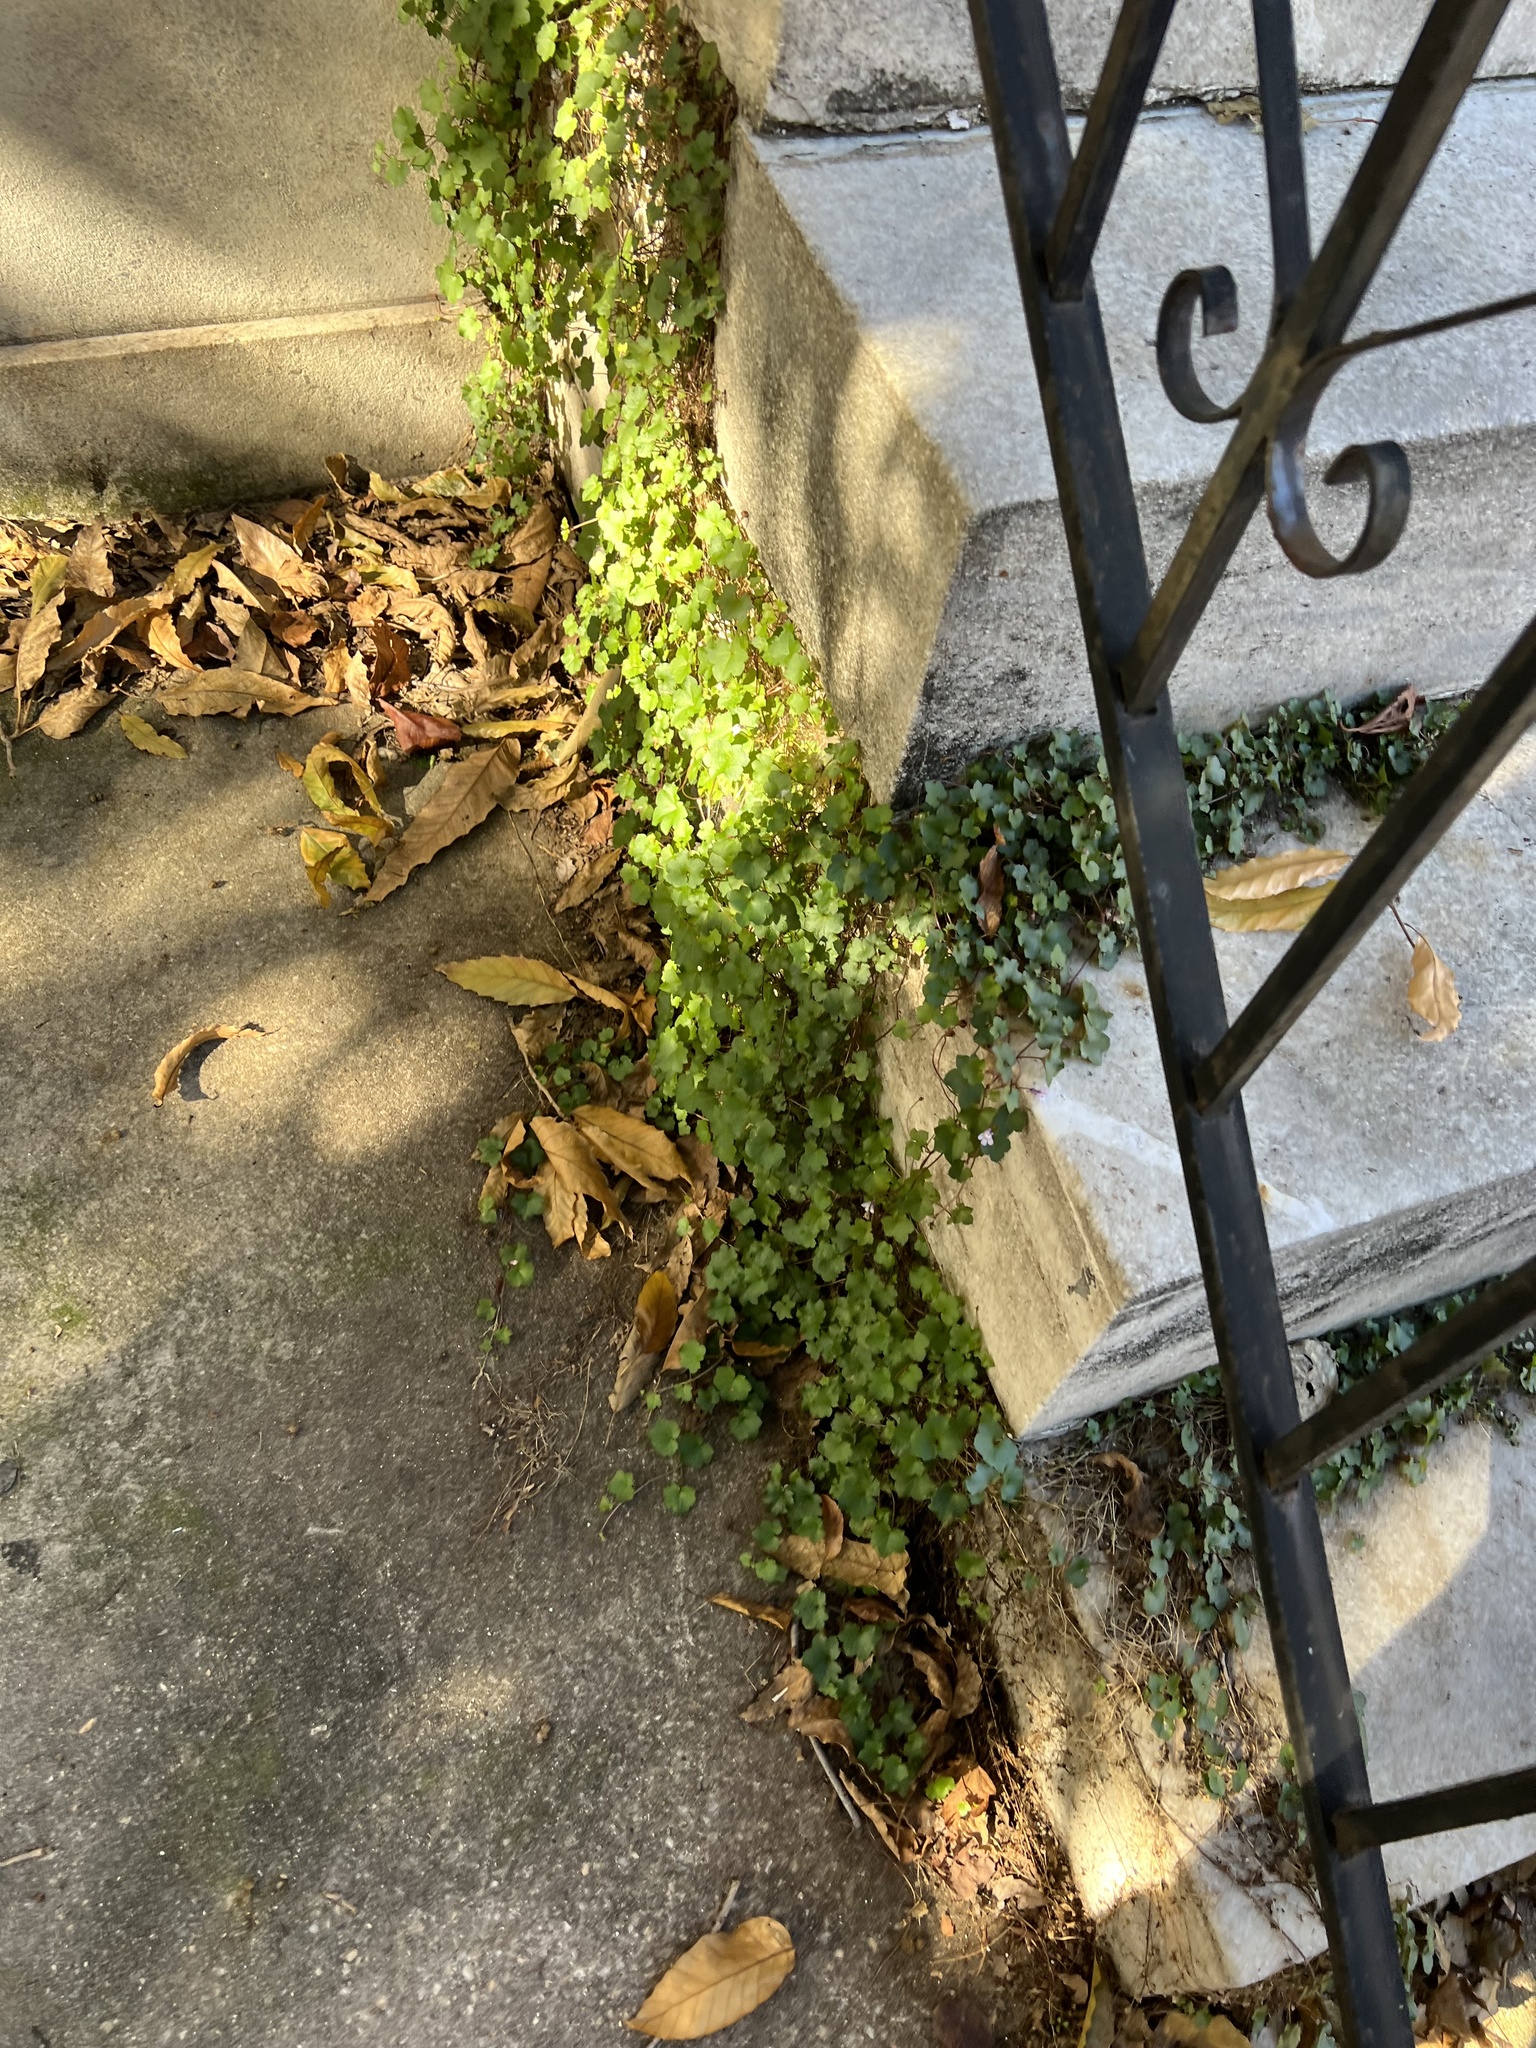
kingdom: Plantae
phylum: Tracheophyta
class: Magnoliopsida
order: Lamiales
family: Plantaginaceae
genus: Cymbalaria
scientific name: Cymbalaria muralis
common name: Ivy-leaved toadflax
